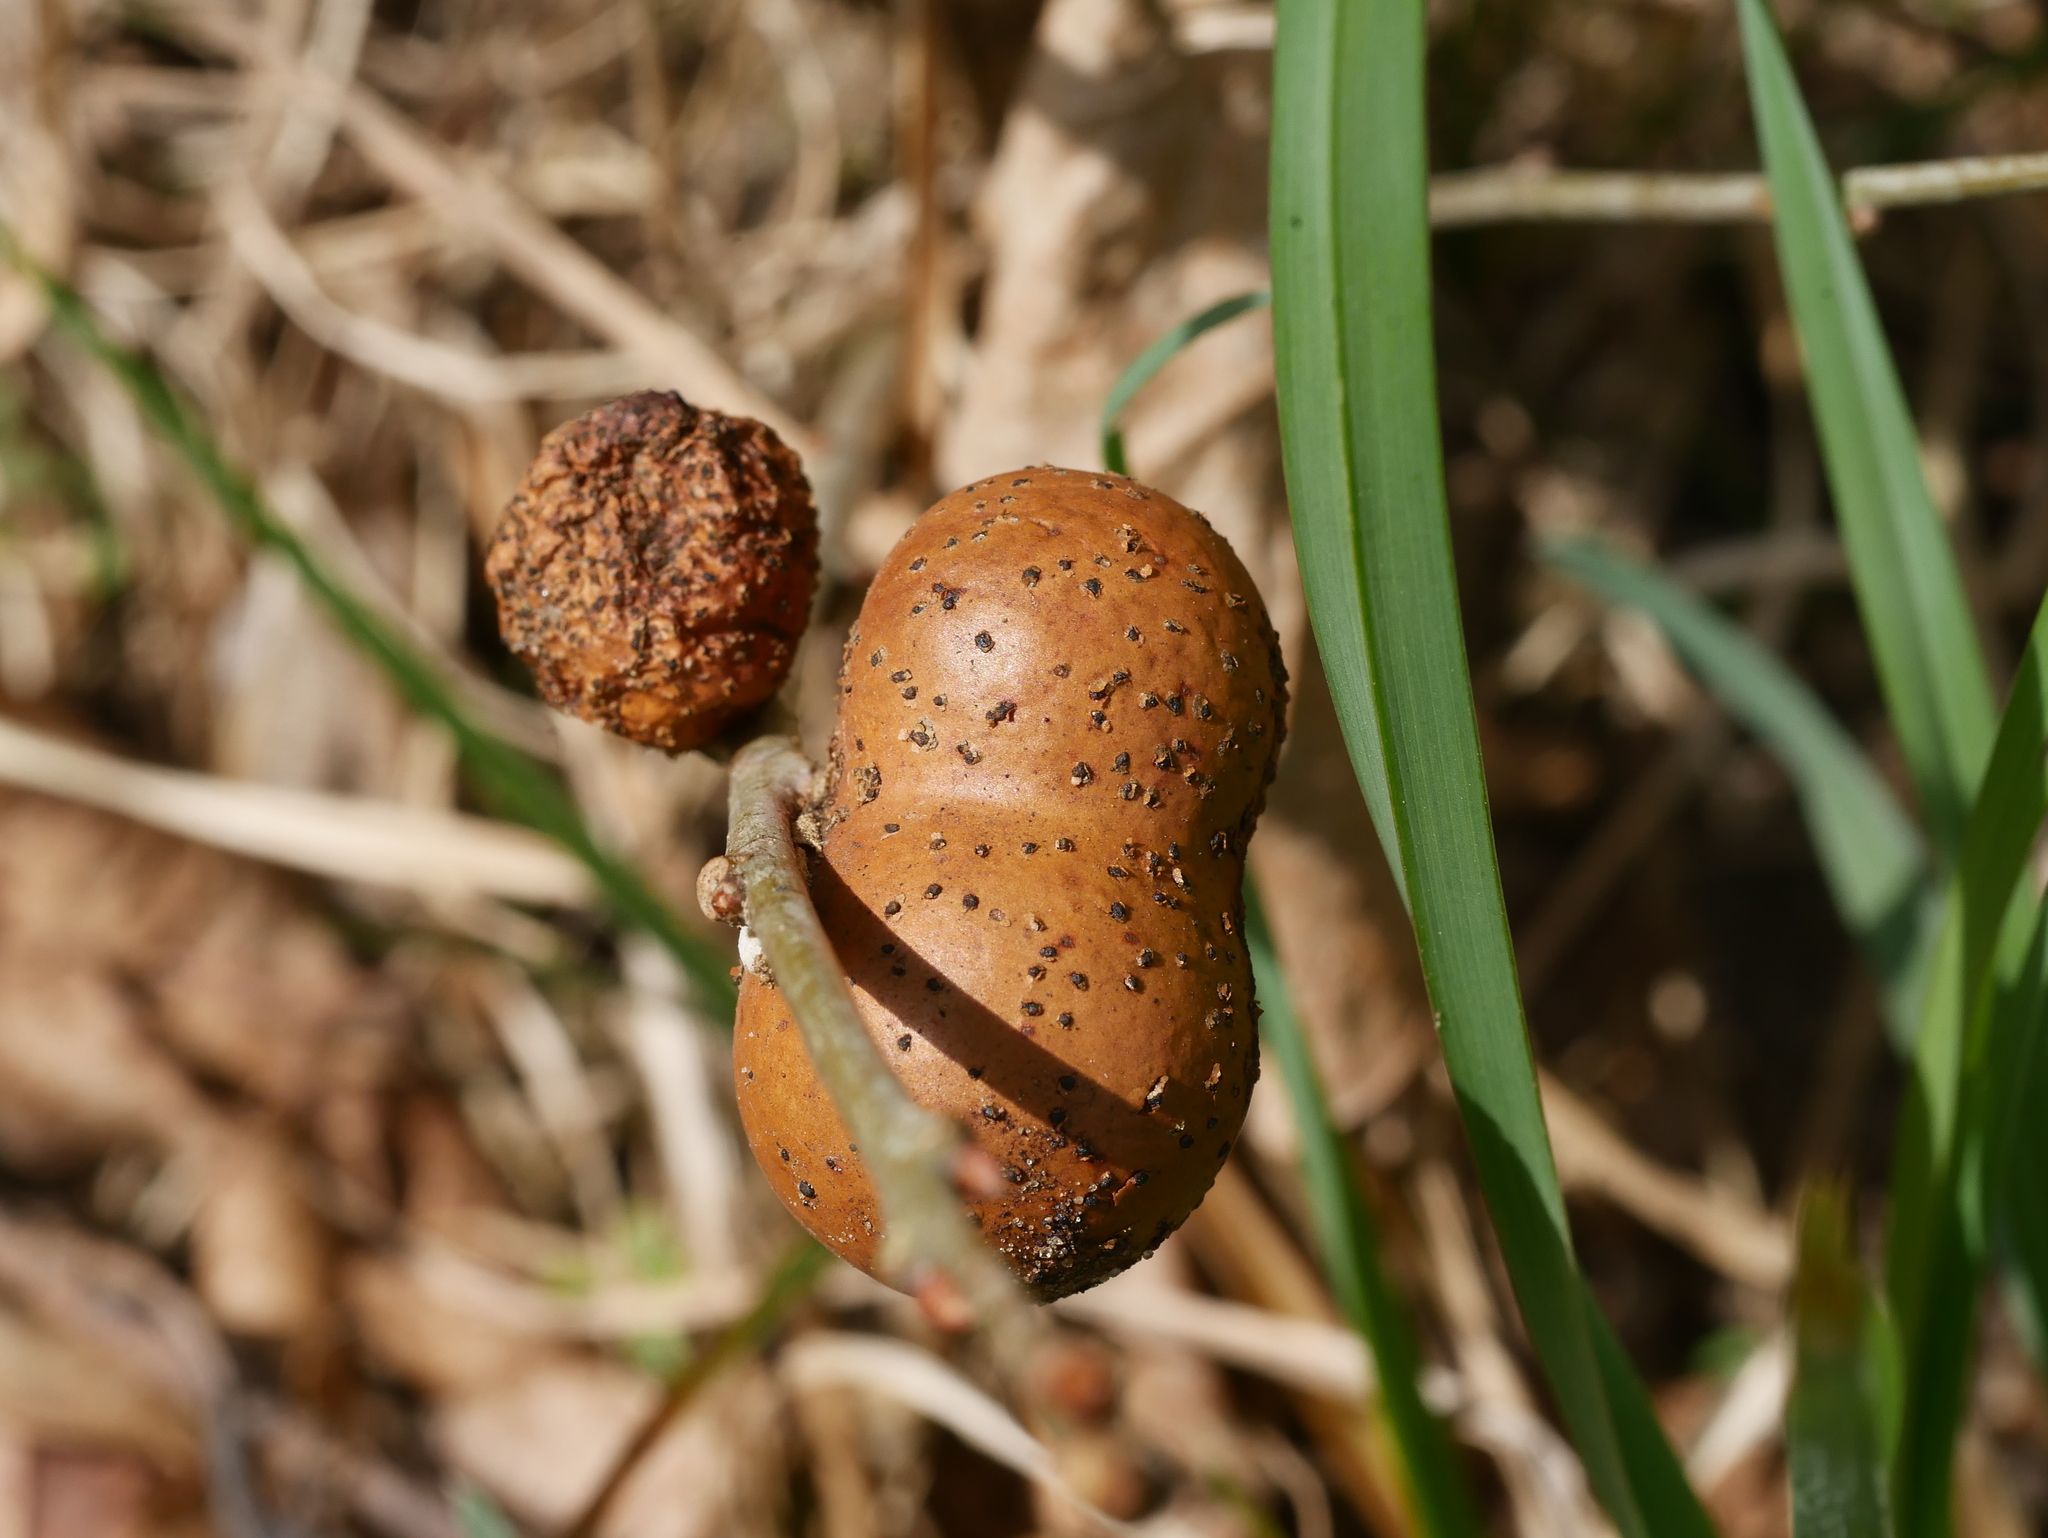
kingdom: Animalia
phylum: Arthropoda
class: Insecta
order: Hymenoptera
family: Cynipidae
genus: Andricus
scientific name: Andricus kollari
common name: Marble gall
